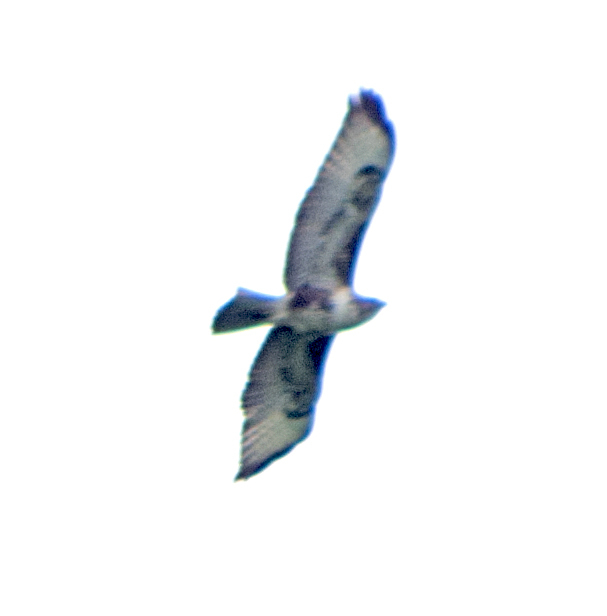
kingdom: Animalia
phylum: Chordata
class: Aves
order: Accipitriformes
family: Accipitridae
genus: Buteo
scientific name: Buteo buteo
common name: Common buzzard
